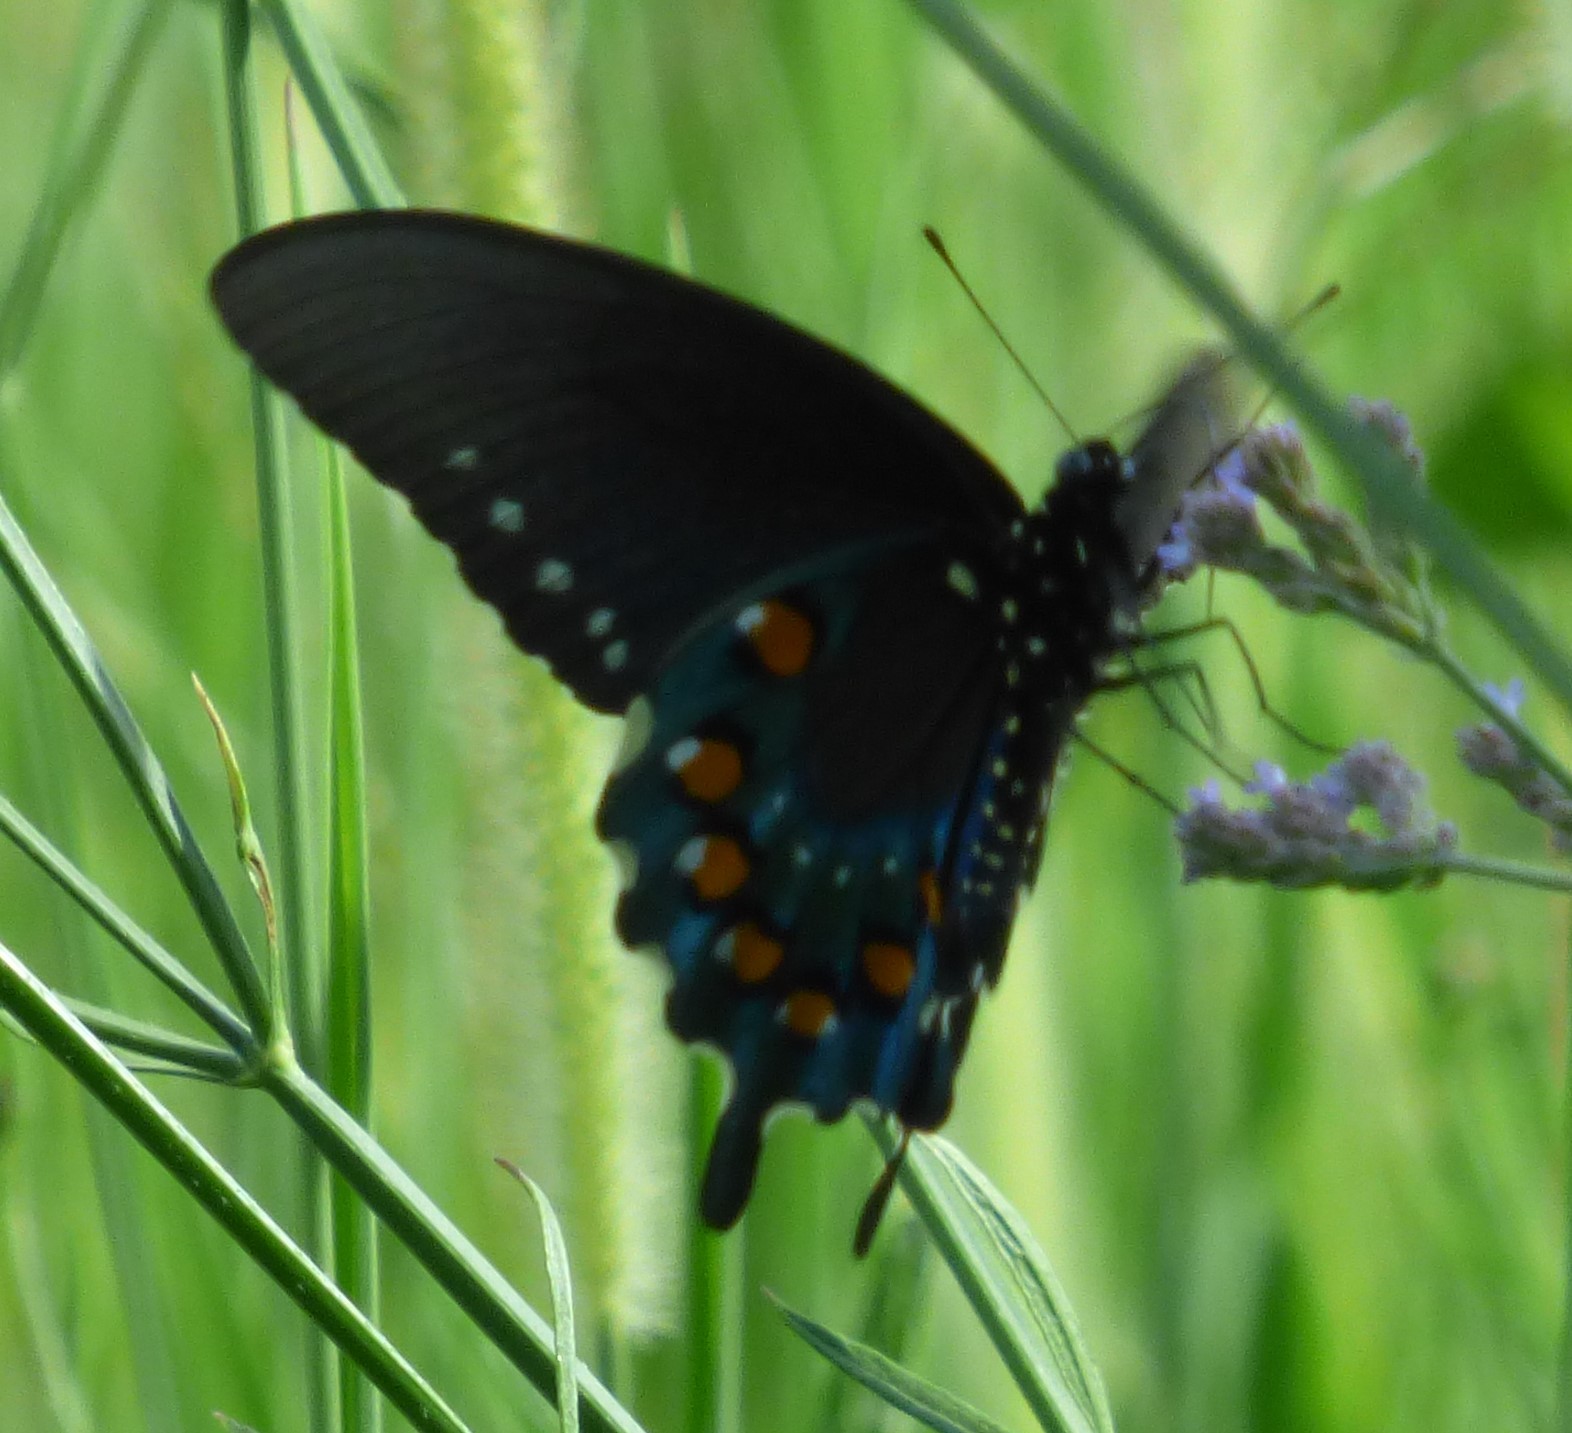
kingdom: Animalia
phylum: Arthropoda
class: Insecta
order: Lepidoptera
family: Papilionidae
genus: Battus
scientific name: Battus philenor
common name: Pipevine swallowtail
